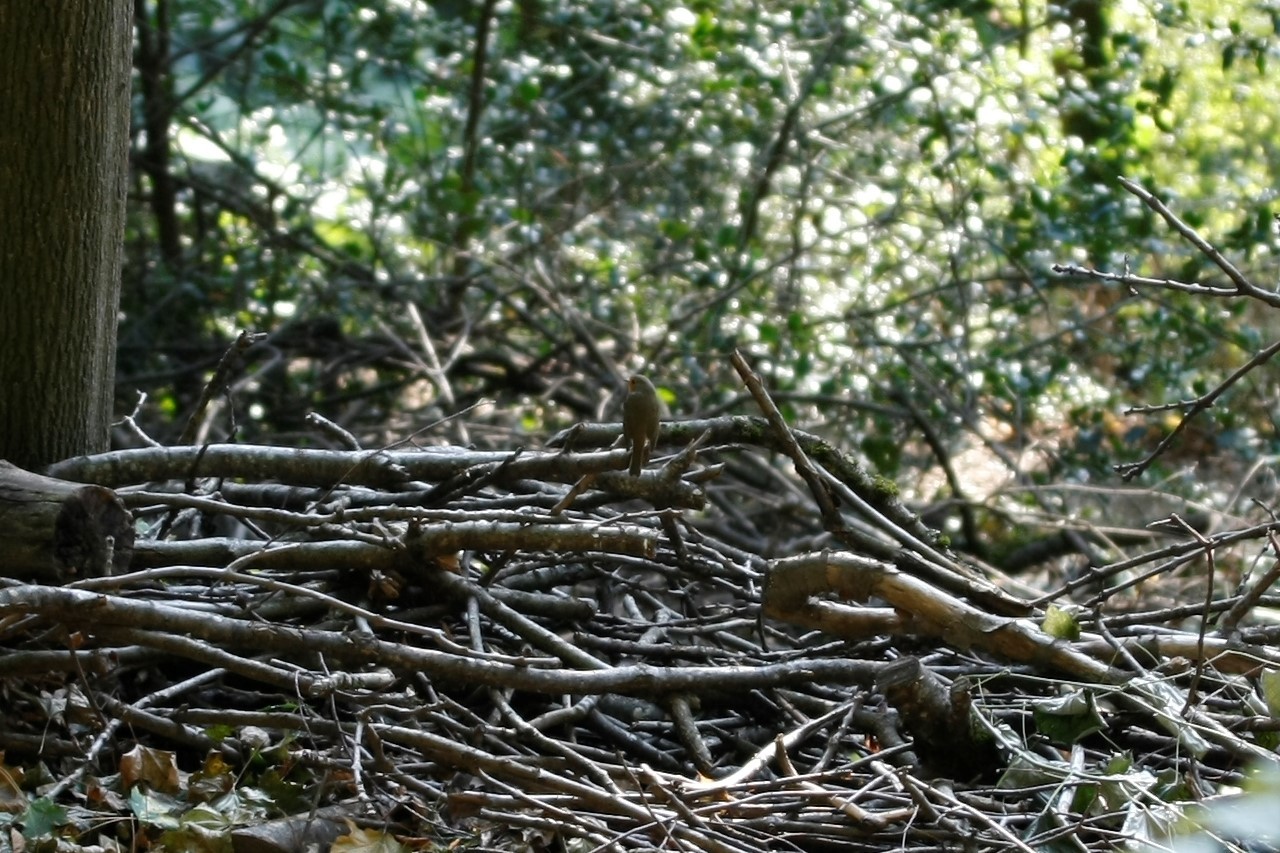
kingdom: Animalia
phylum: Chordata
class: Aves
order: Passeriformes
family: Muscicapidae
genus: Erithacus
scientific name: Erithacus rubecula
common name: European robin
